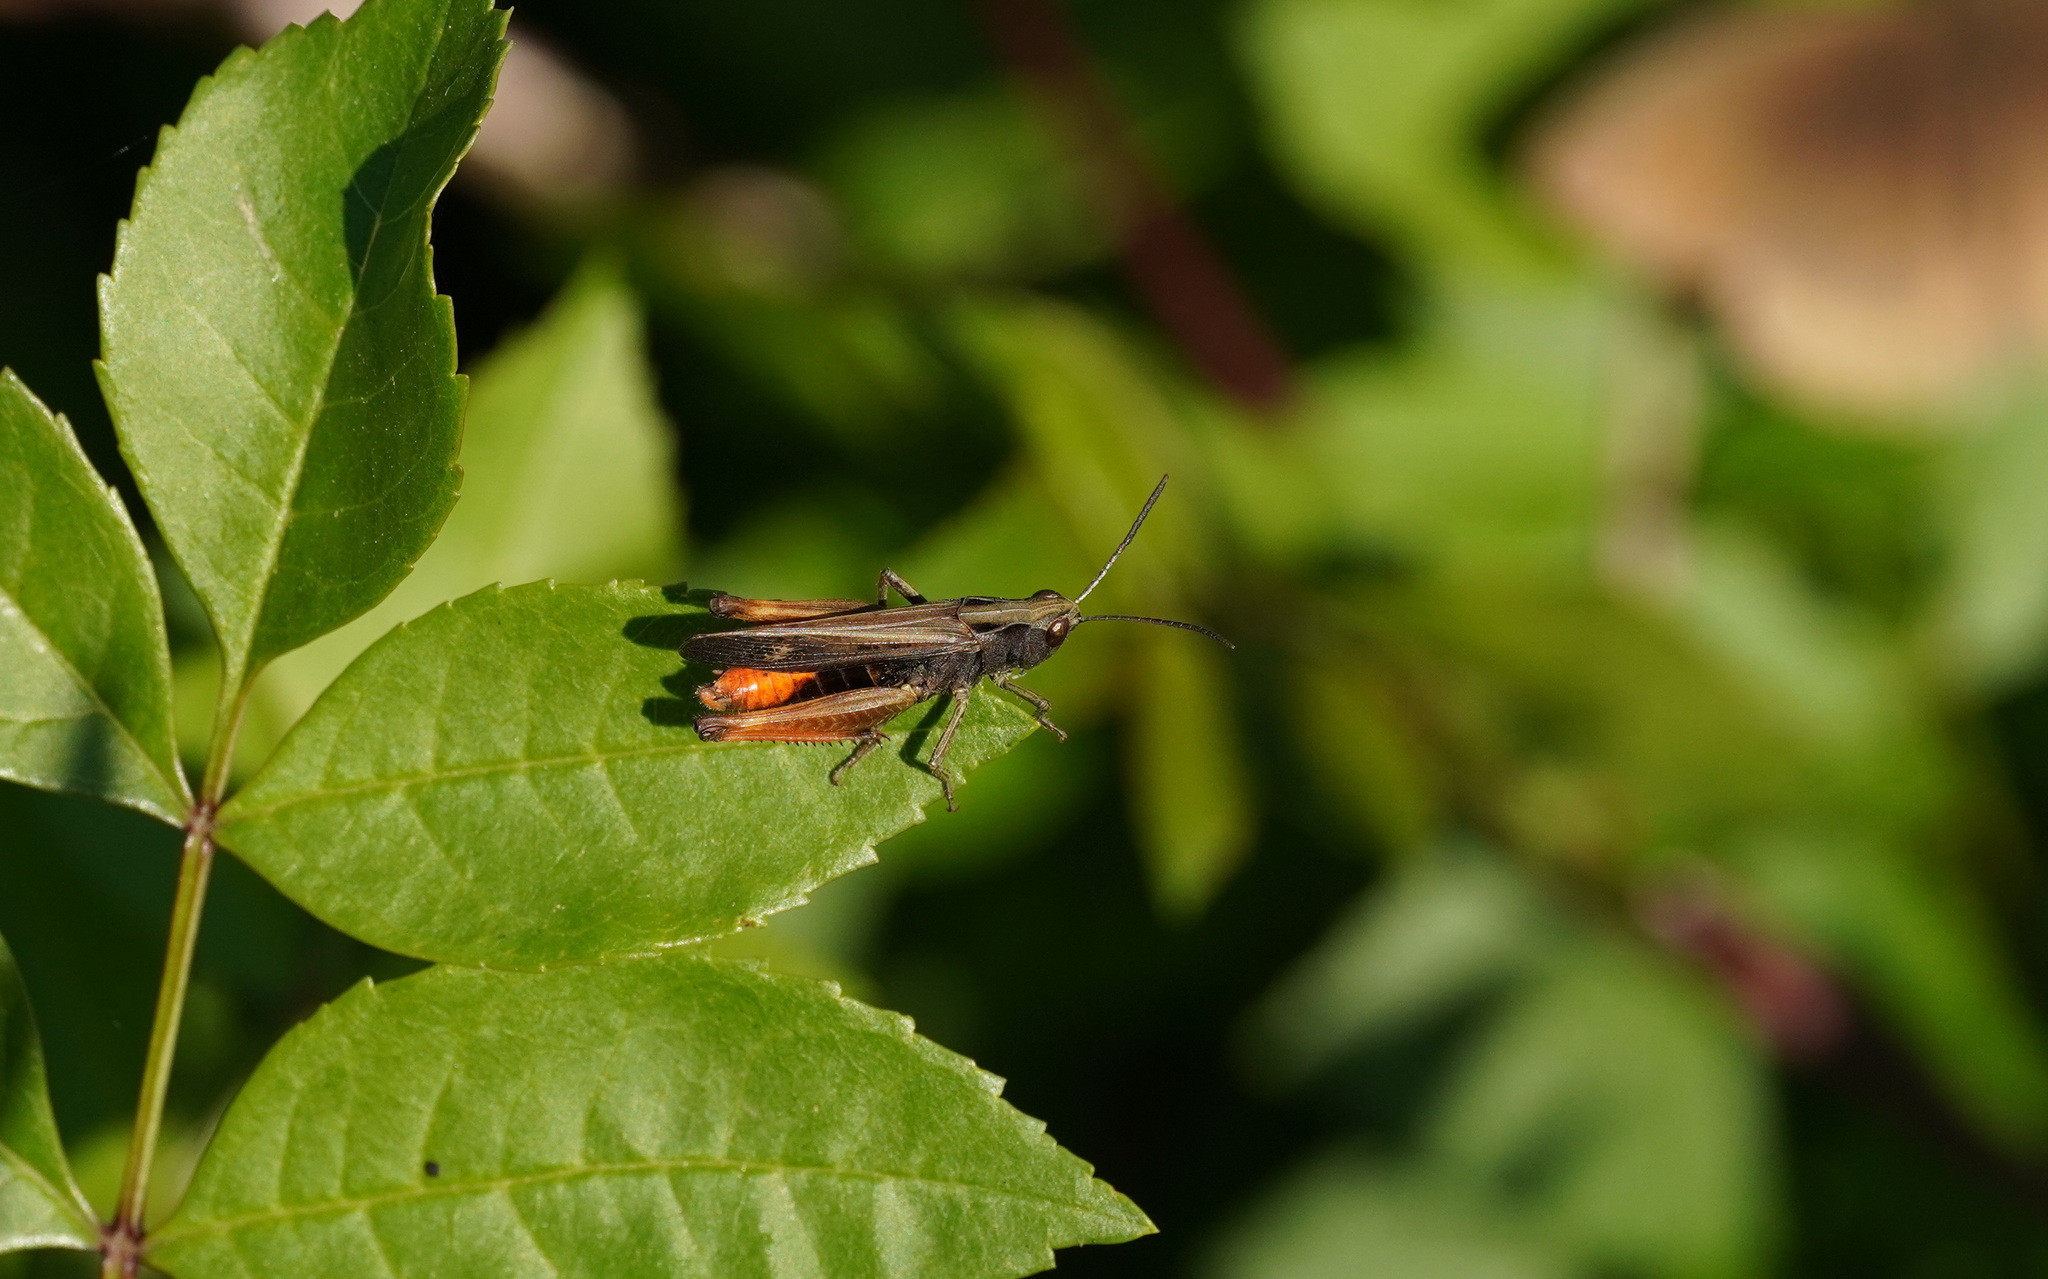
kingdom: Animalia
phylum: Arthropoda
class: Insecta
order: Orthoptera
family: Acrididae
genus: Omocestus
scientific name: Omocestus rufipes
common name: Woodland grasshopper
